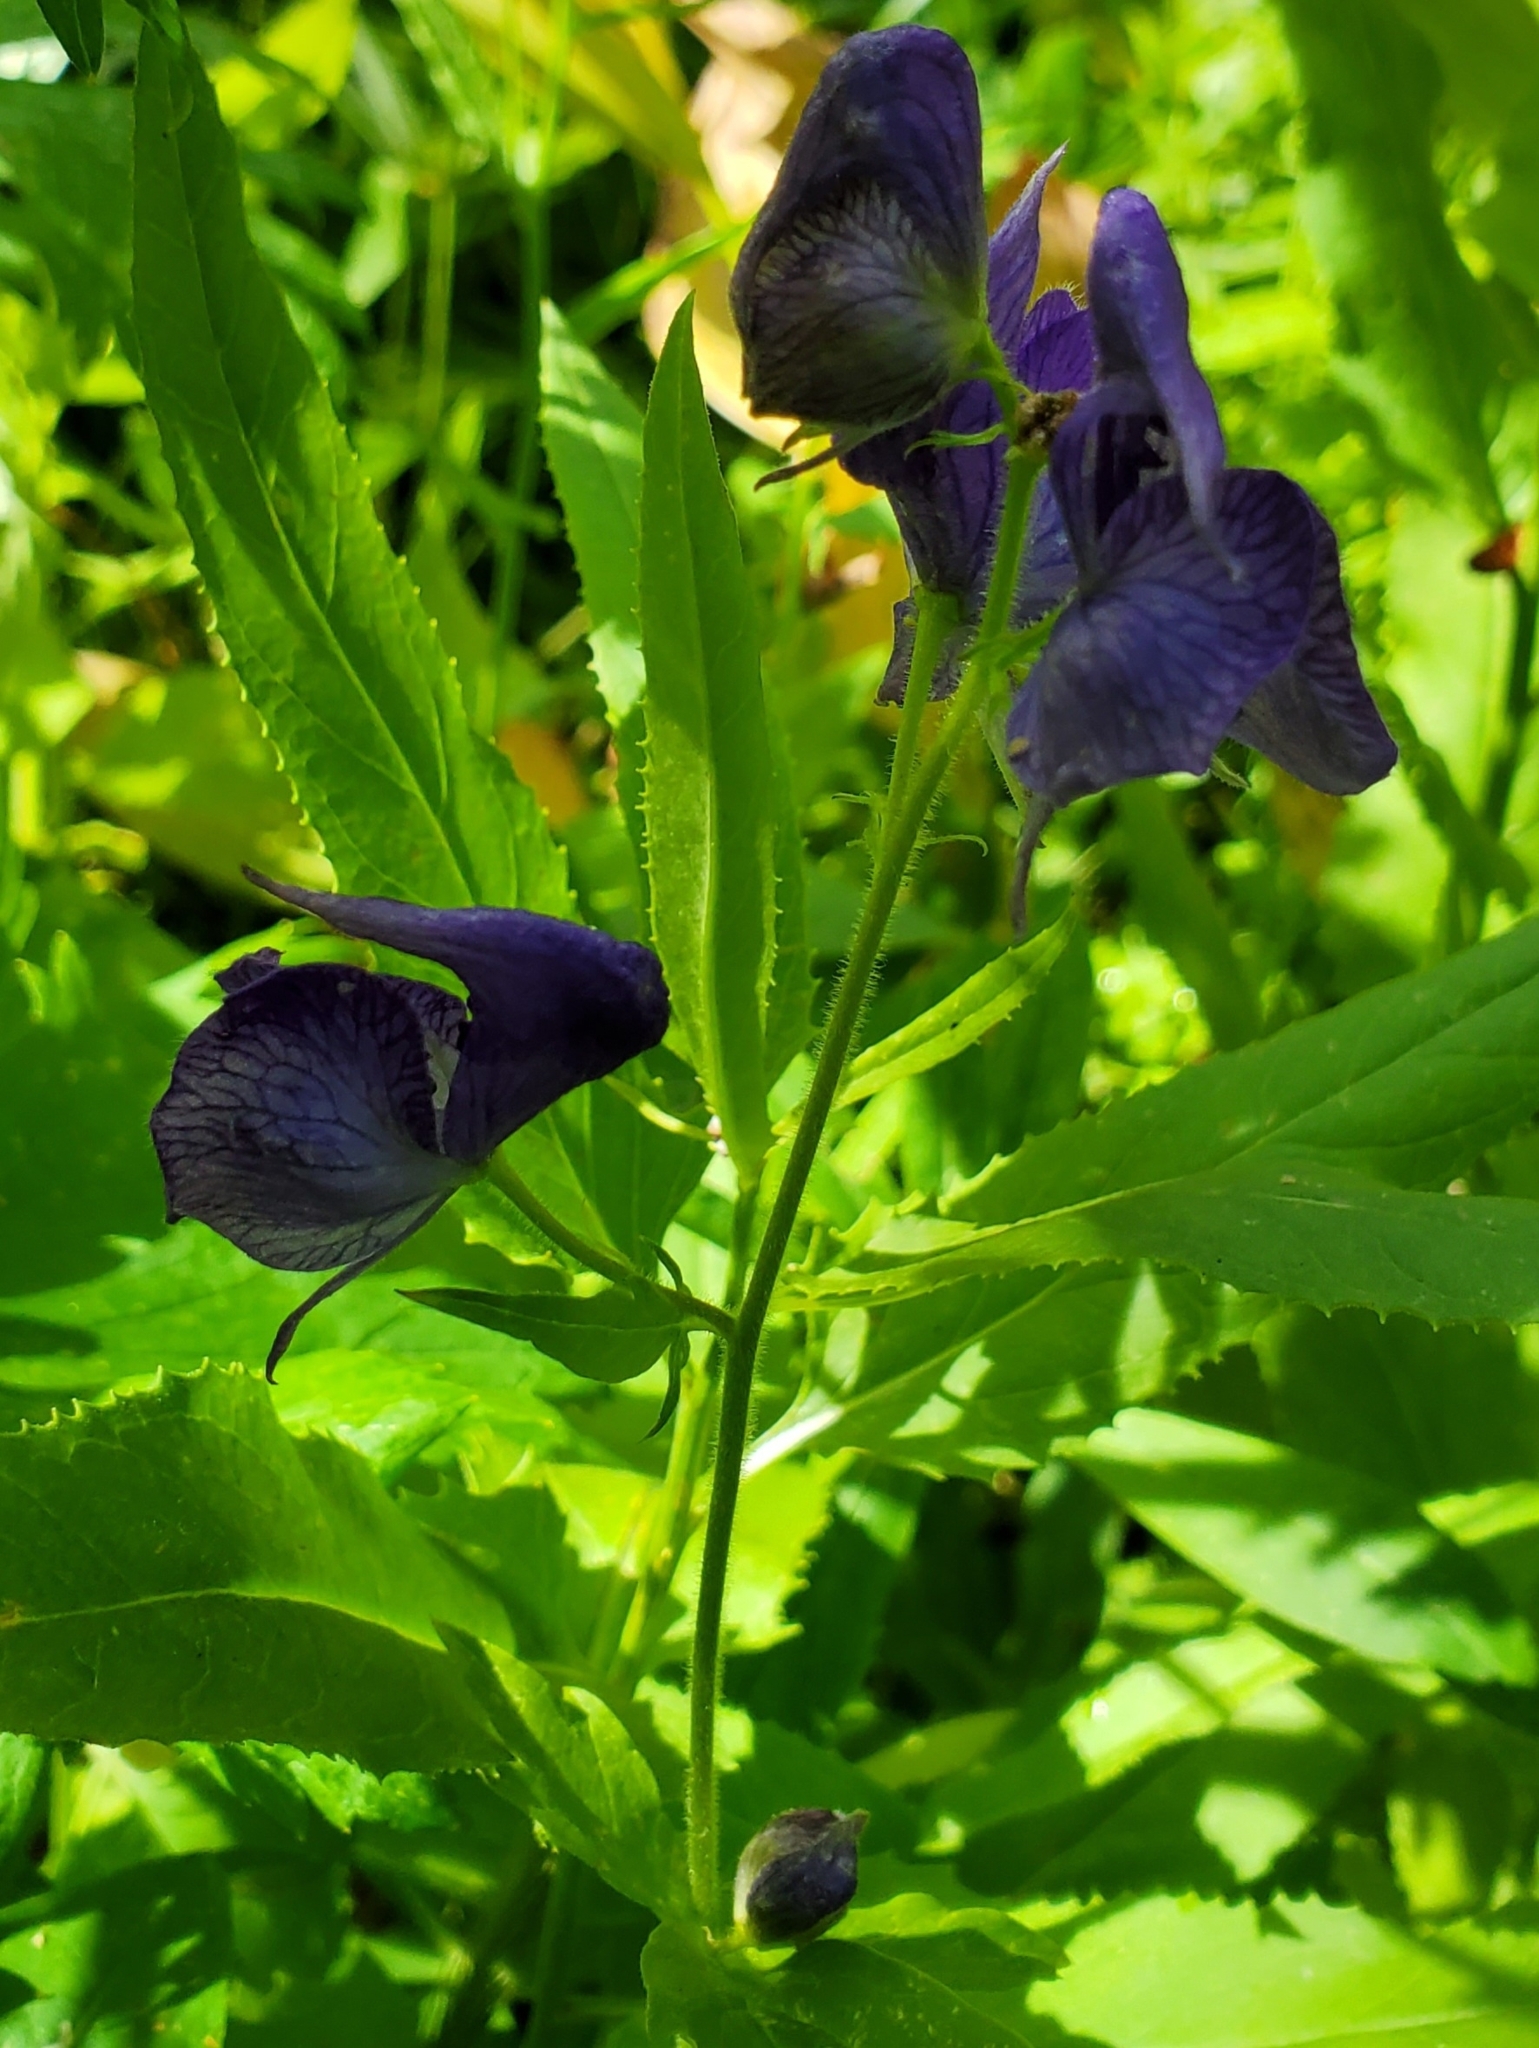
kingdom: Plantae
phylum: Tracheophyta
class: Magnoliopsida
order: Ranunculales
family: Ranunculaceae
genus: Aconitum
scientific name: Aconitum columbianum
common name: Columbia aconite
